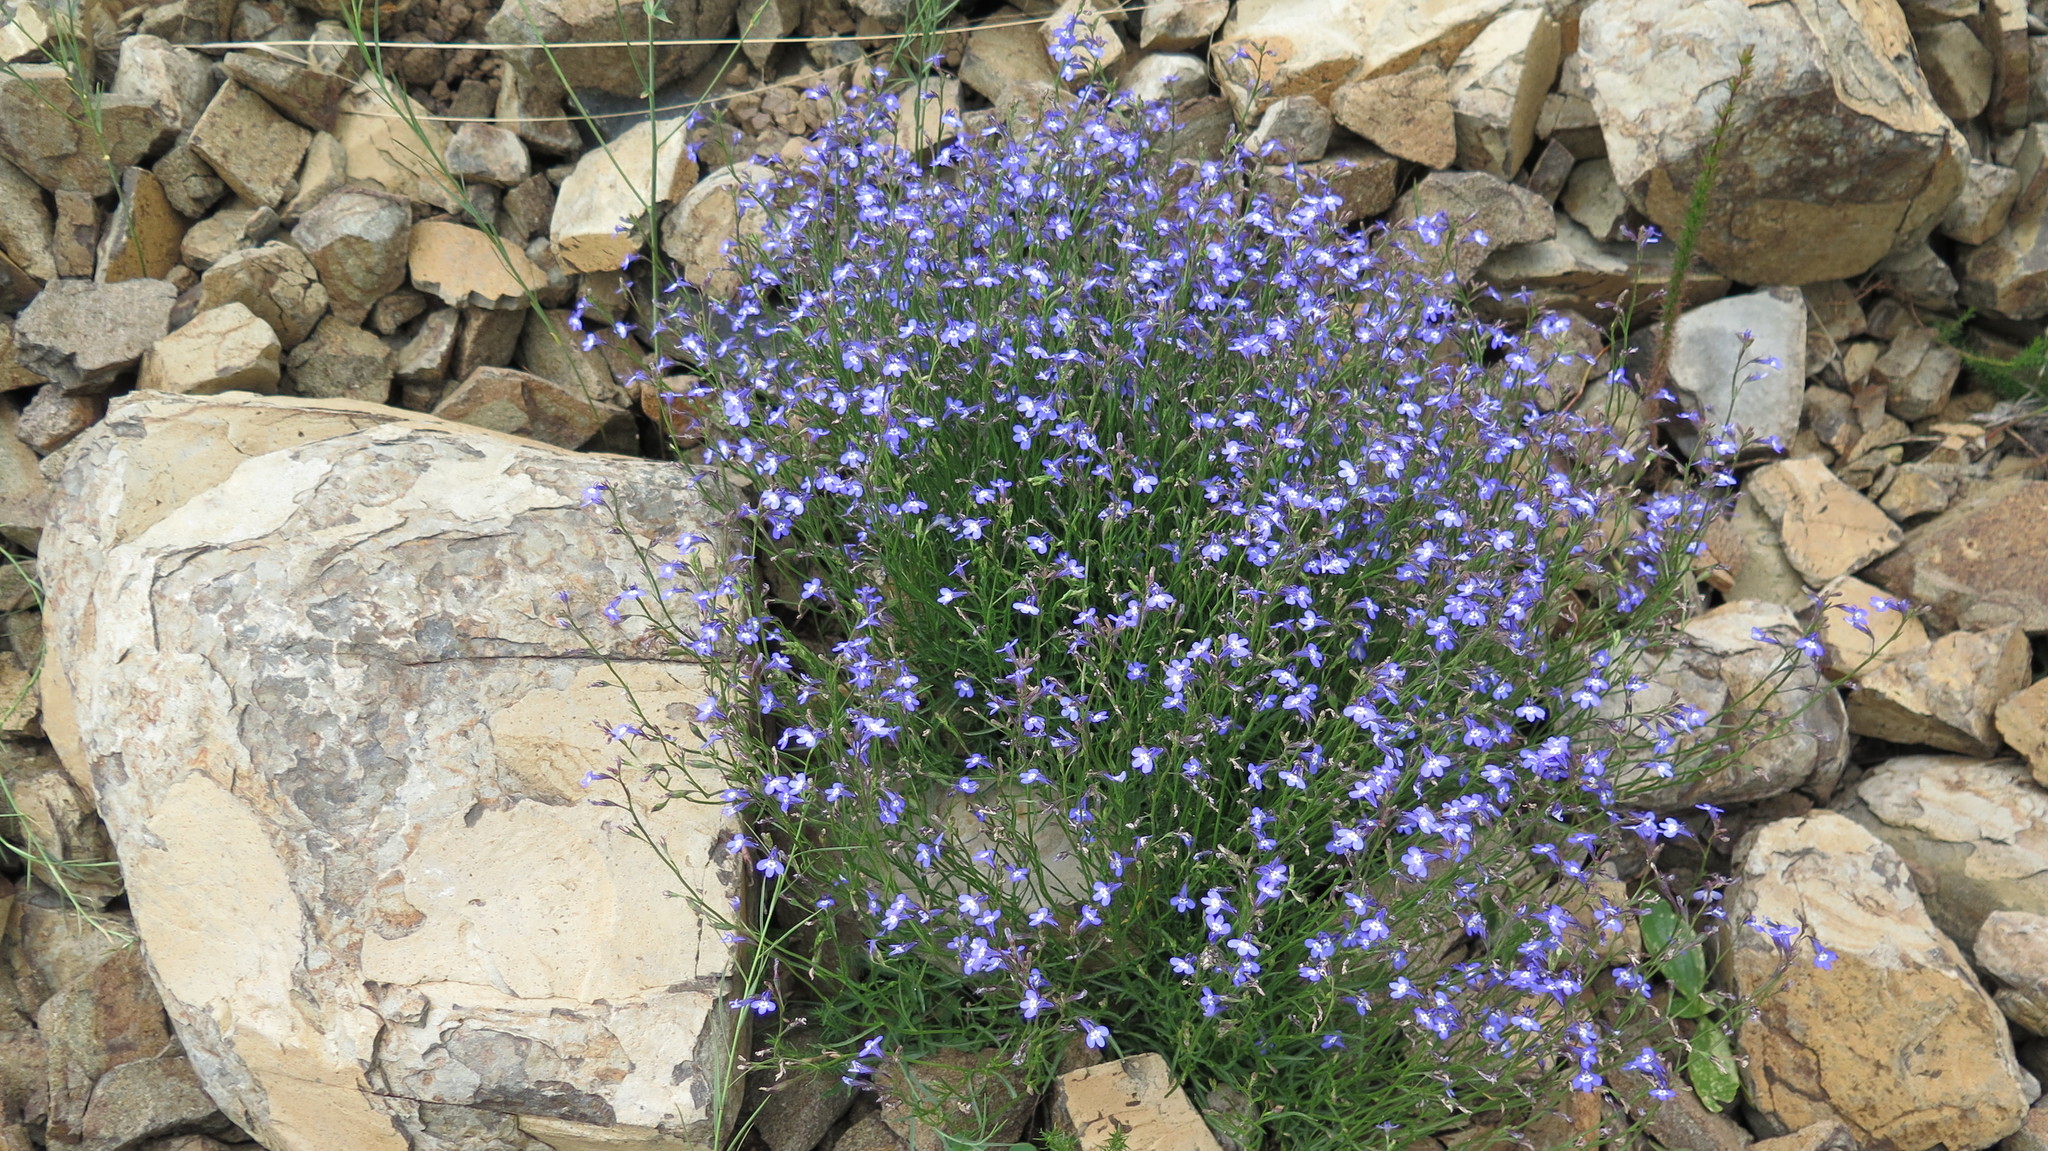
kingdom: Plantae
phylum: Tracheophyta
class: Magnoliopsida
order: Asterales
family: Campanulaceae
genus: Lobelia
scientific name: Lobelia flaccida
